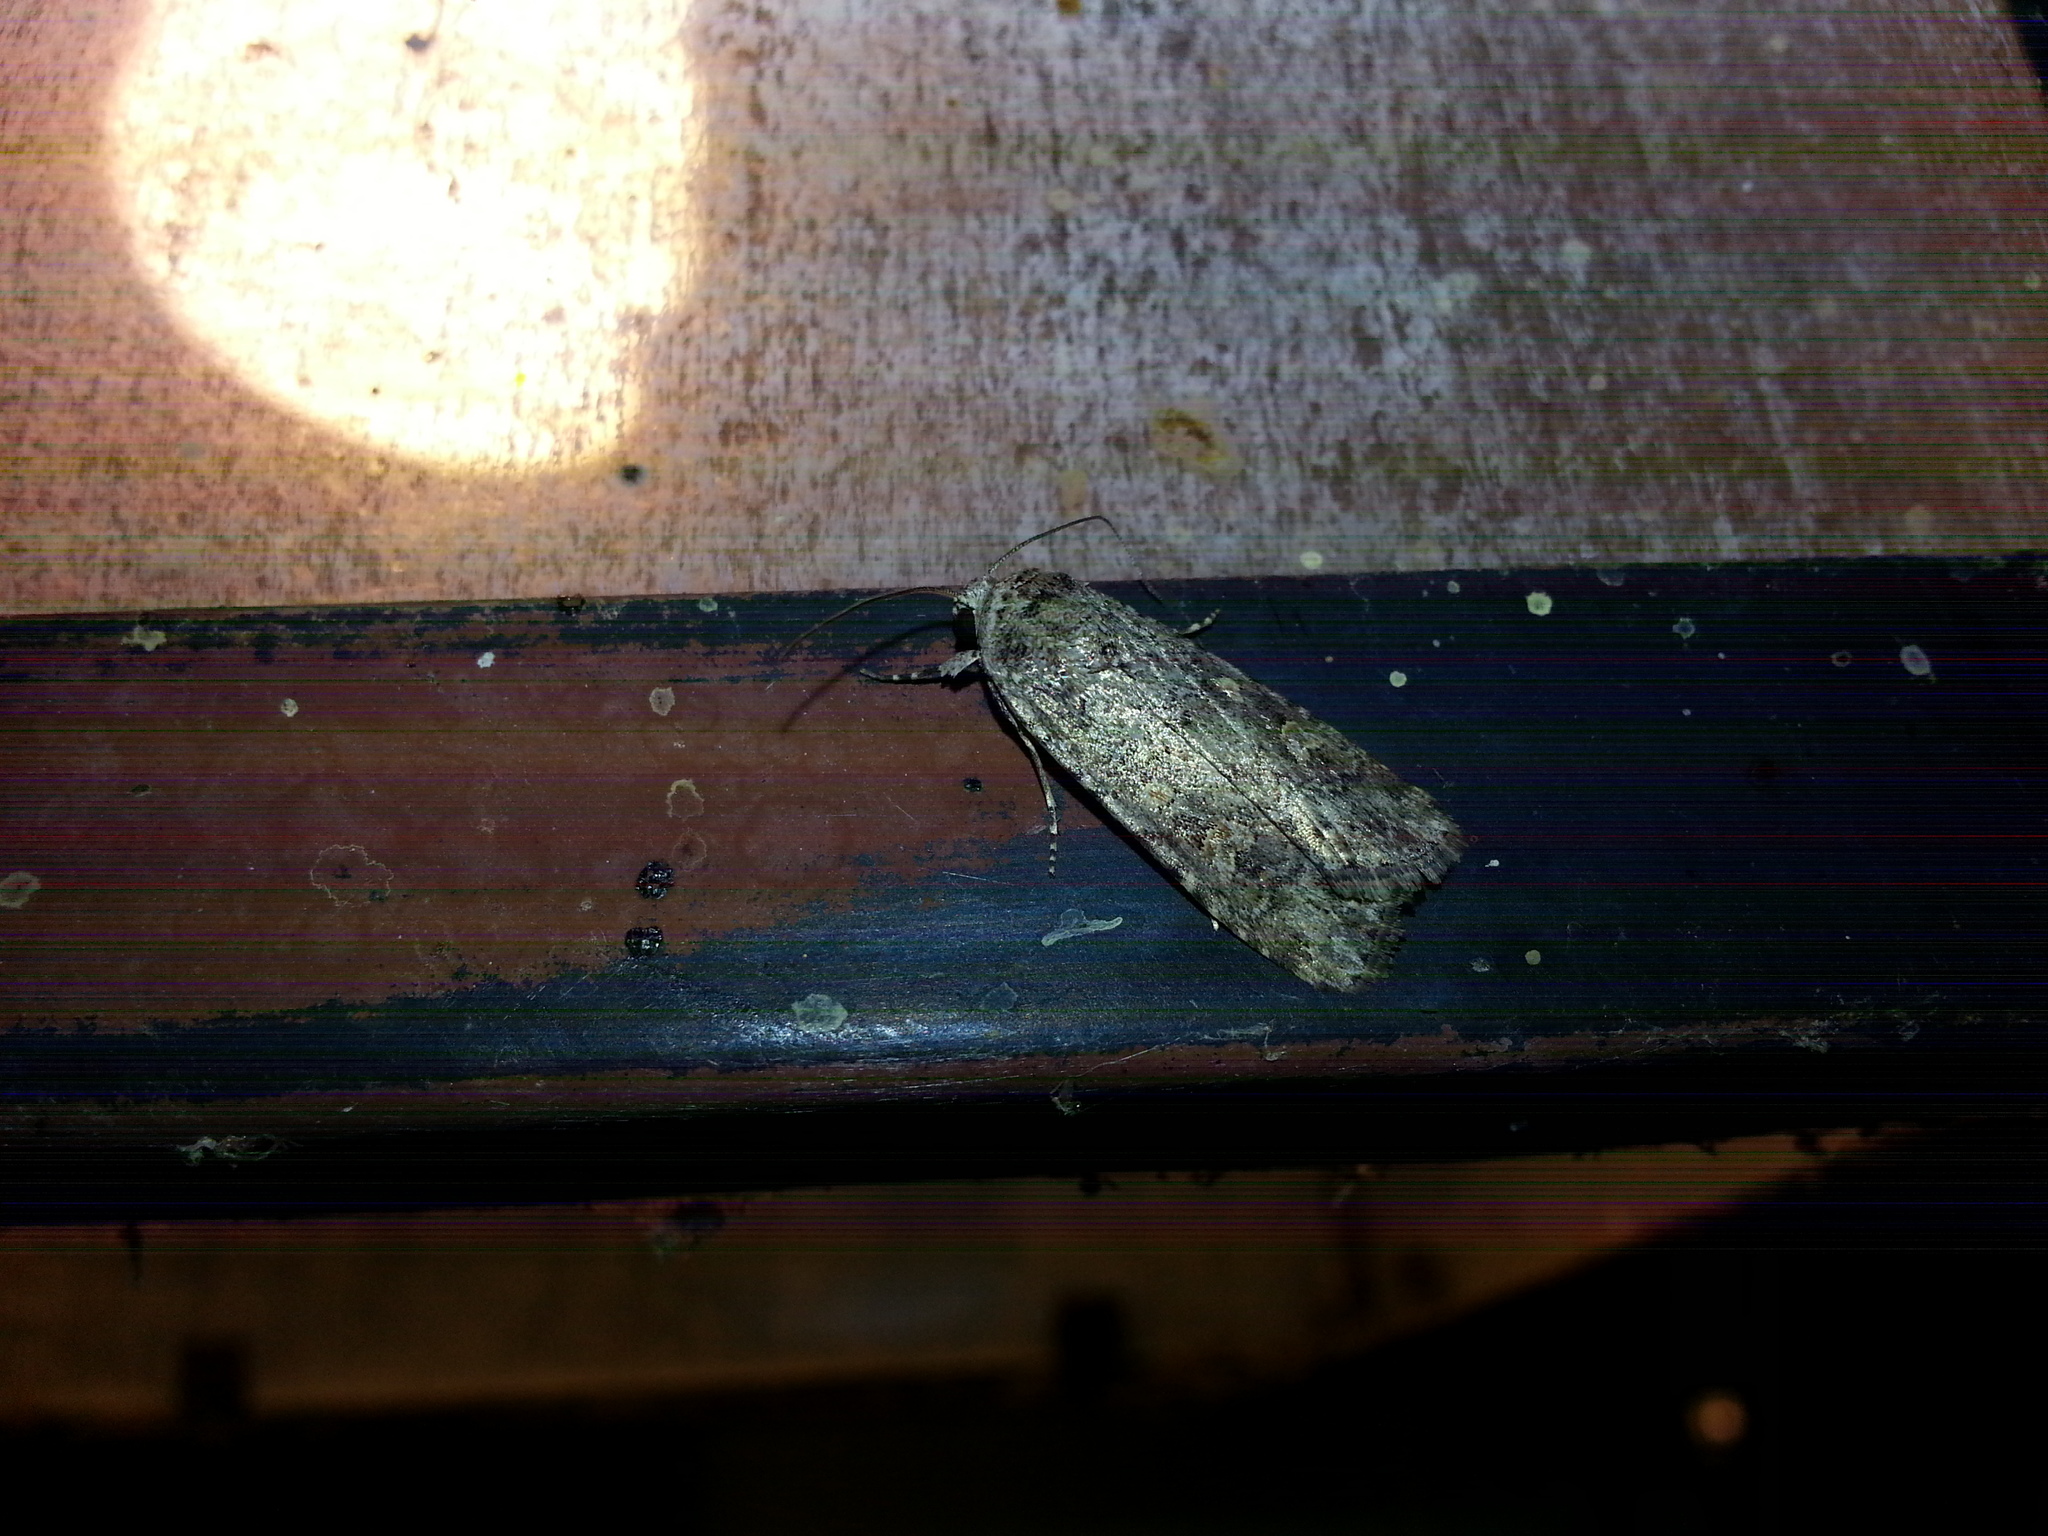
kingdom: Animalia
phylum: Arthropoda
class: Insecta
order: Lepidoptera
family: Noctuidae
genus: Spodoptera
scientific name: Spodoptera exigua
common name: Beet armyworm
